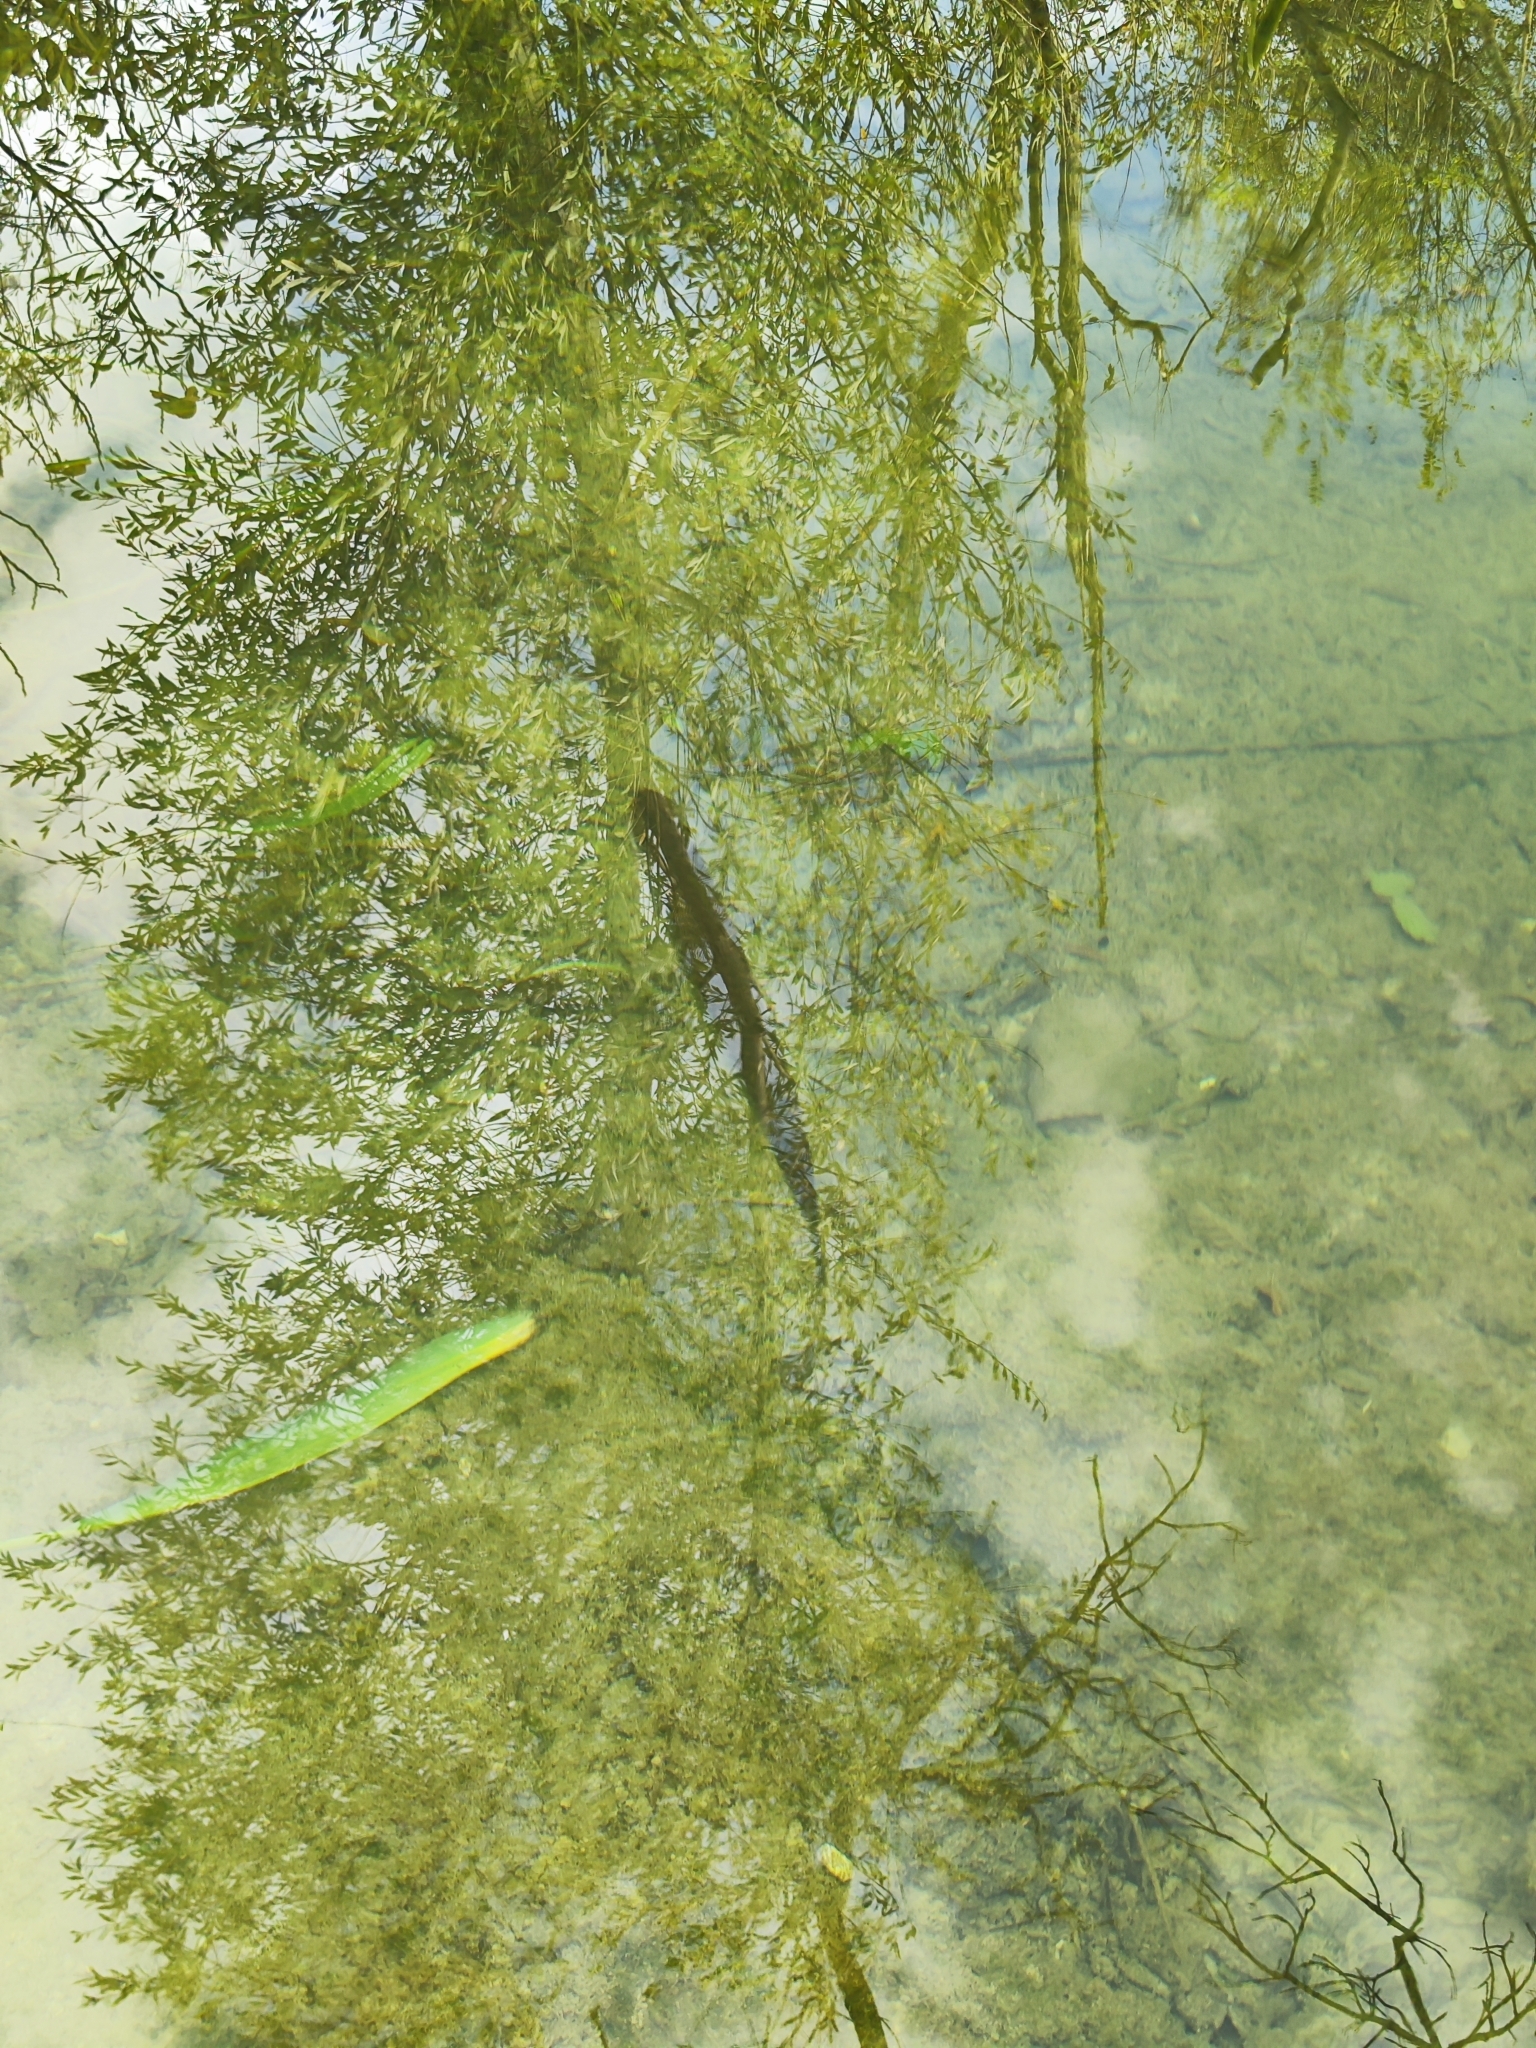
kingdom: Animalia
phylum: Chordata
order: Esociformes
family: Esocidae
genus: Esox
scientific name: Esox lucius
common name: Northern pike
